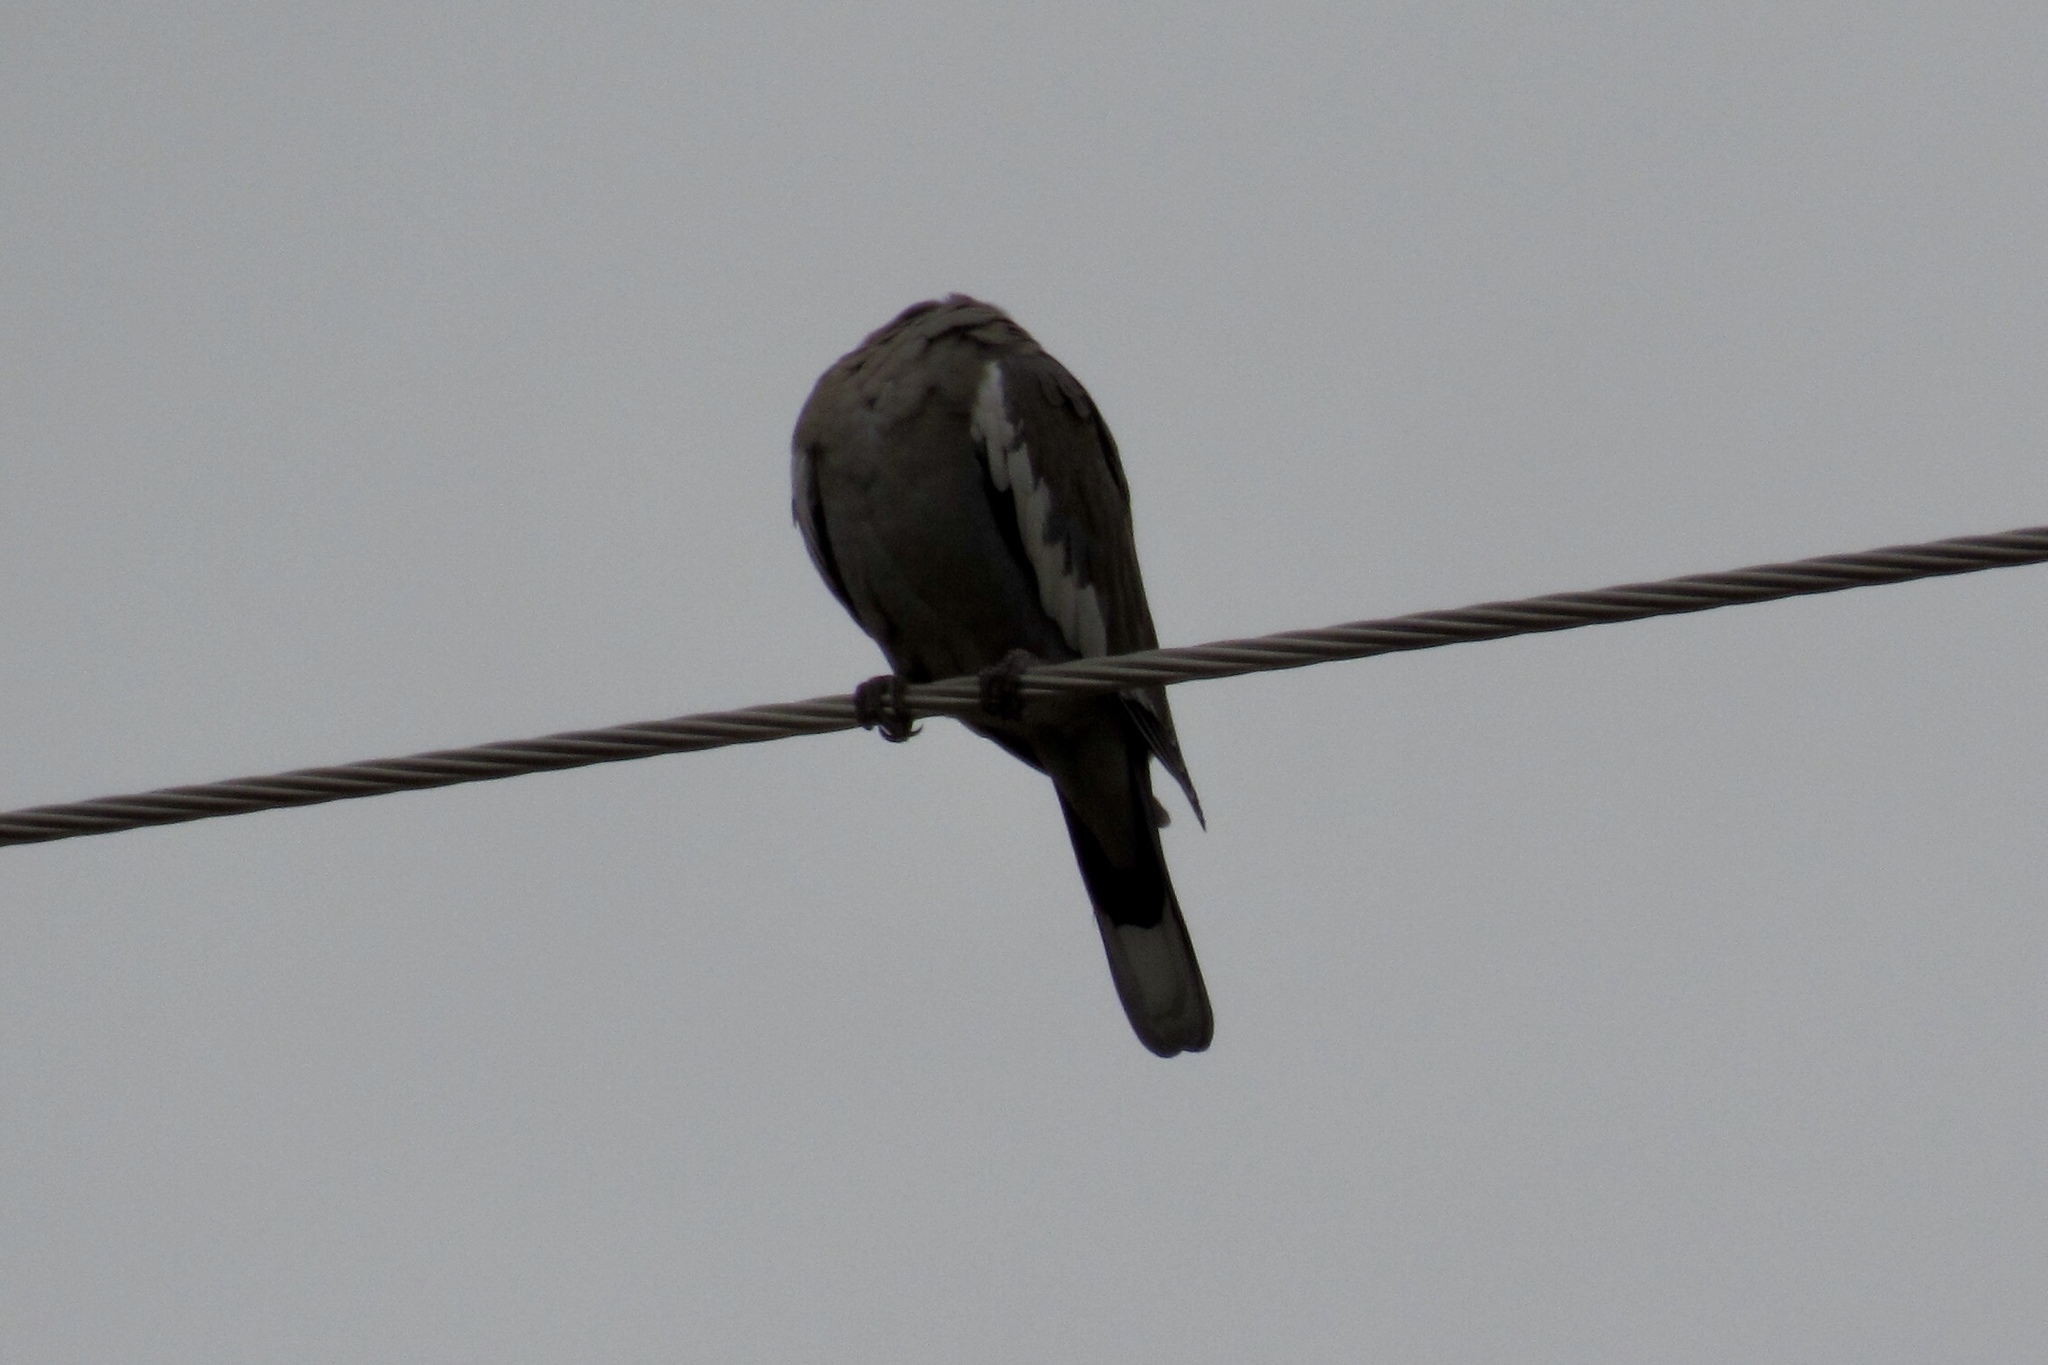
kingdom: Animalia
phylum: Chordata
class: Aves
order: Columbiformes
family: Columbidae
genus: Zenaida
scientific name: Zenaida asiatica
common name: White-winged dove
